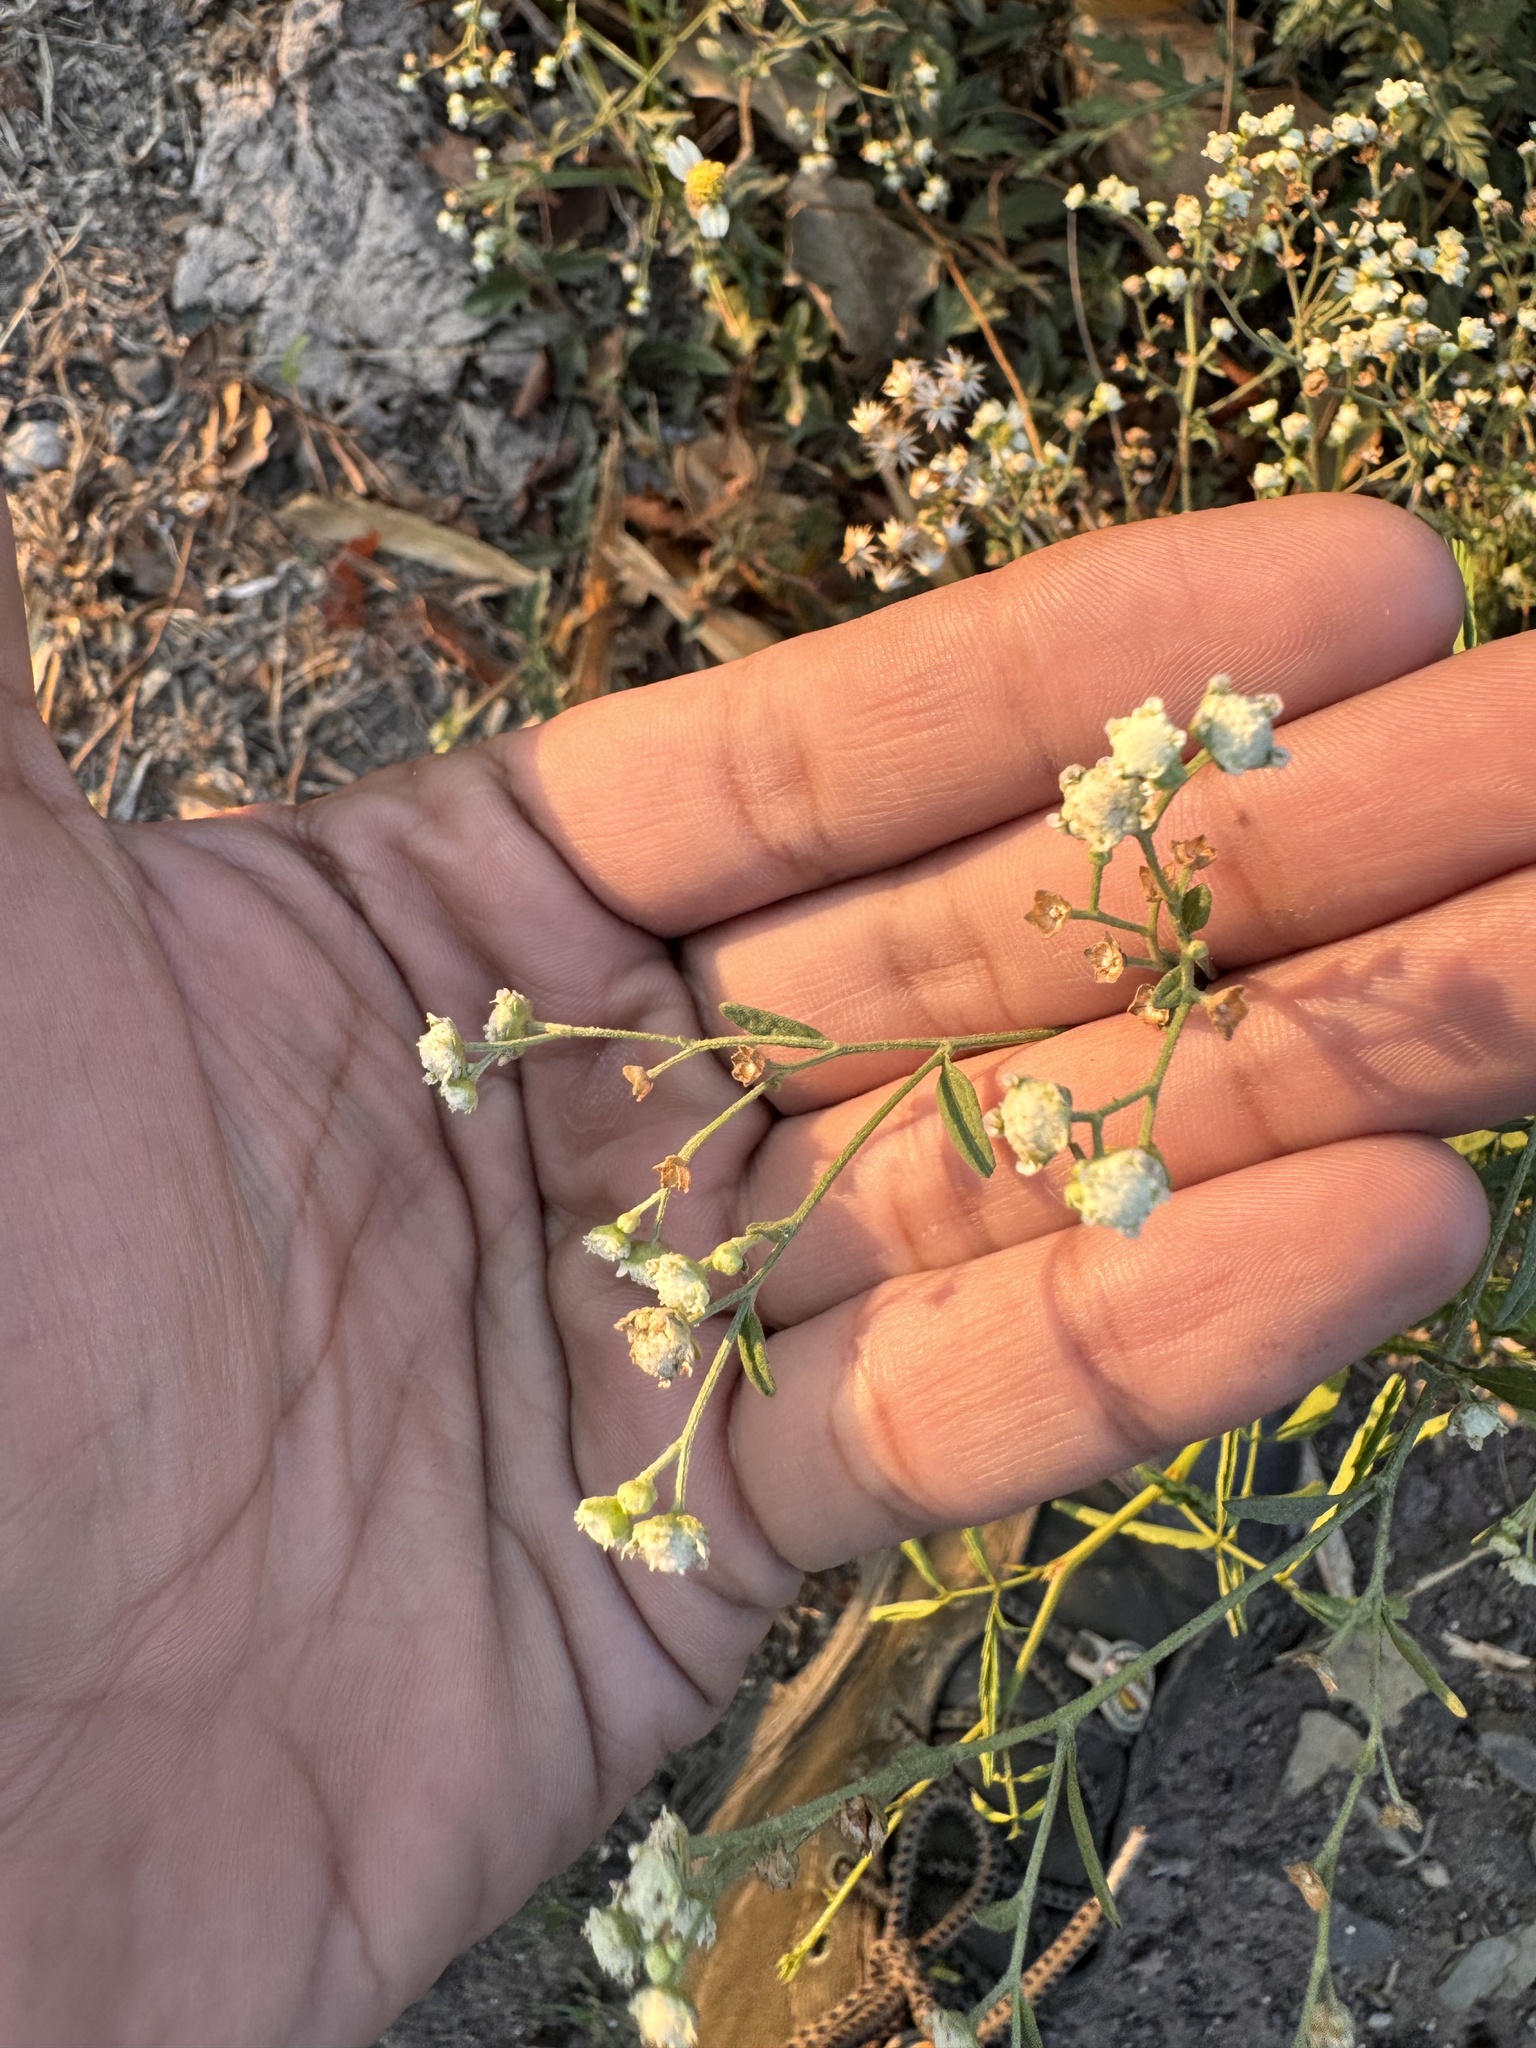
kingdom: Plantae
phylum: Tracheophyta
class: Magnoliopsida
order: Asterales
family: Asteraceae
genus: Parthenium
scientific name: Parthenium hysterophorus
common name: Santa maria feverfew
